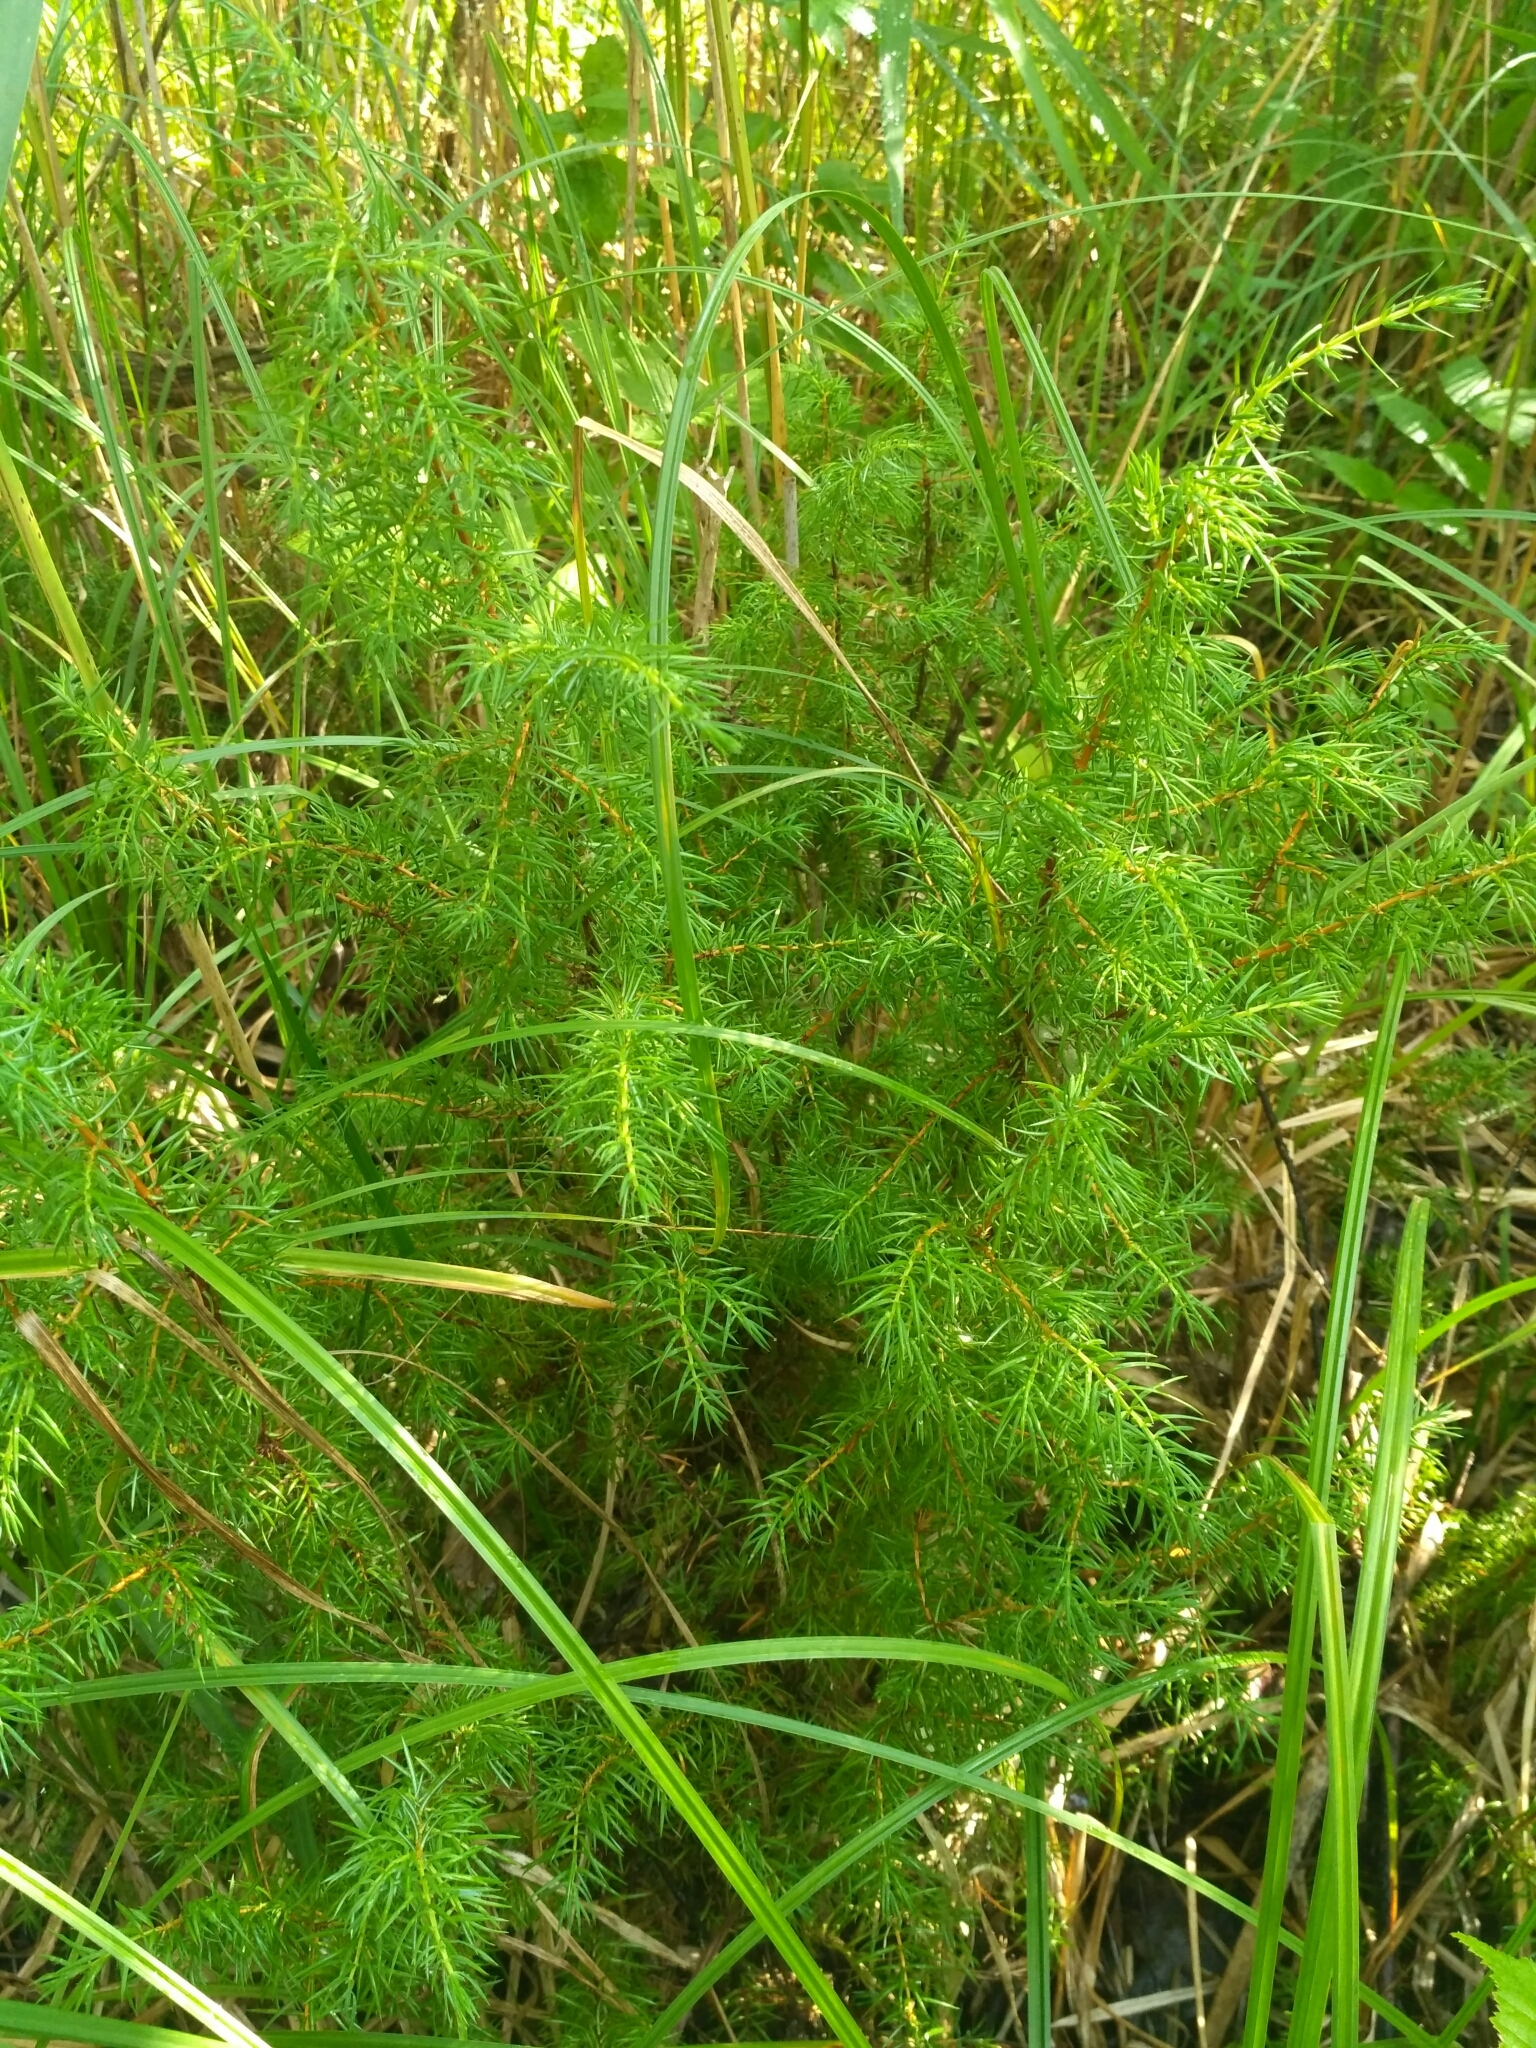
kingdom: Plantae
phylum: Tracheophyta
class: Pinopsida
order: Pinales
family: Cupressaceae
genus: Juniperus
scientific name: Juniperus communis
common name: Common juniper
